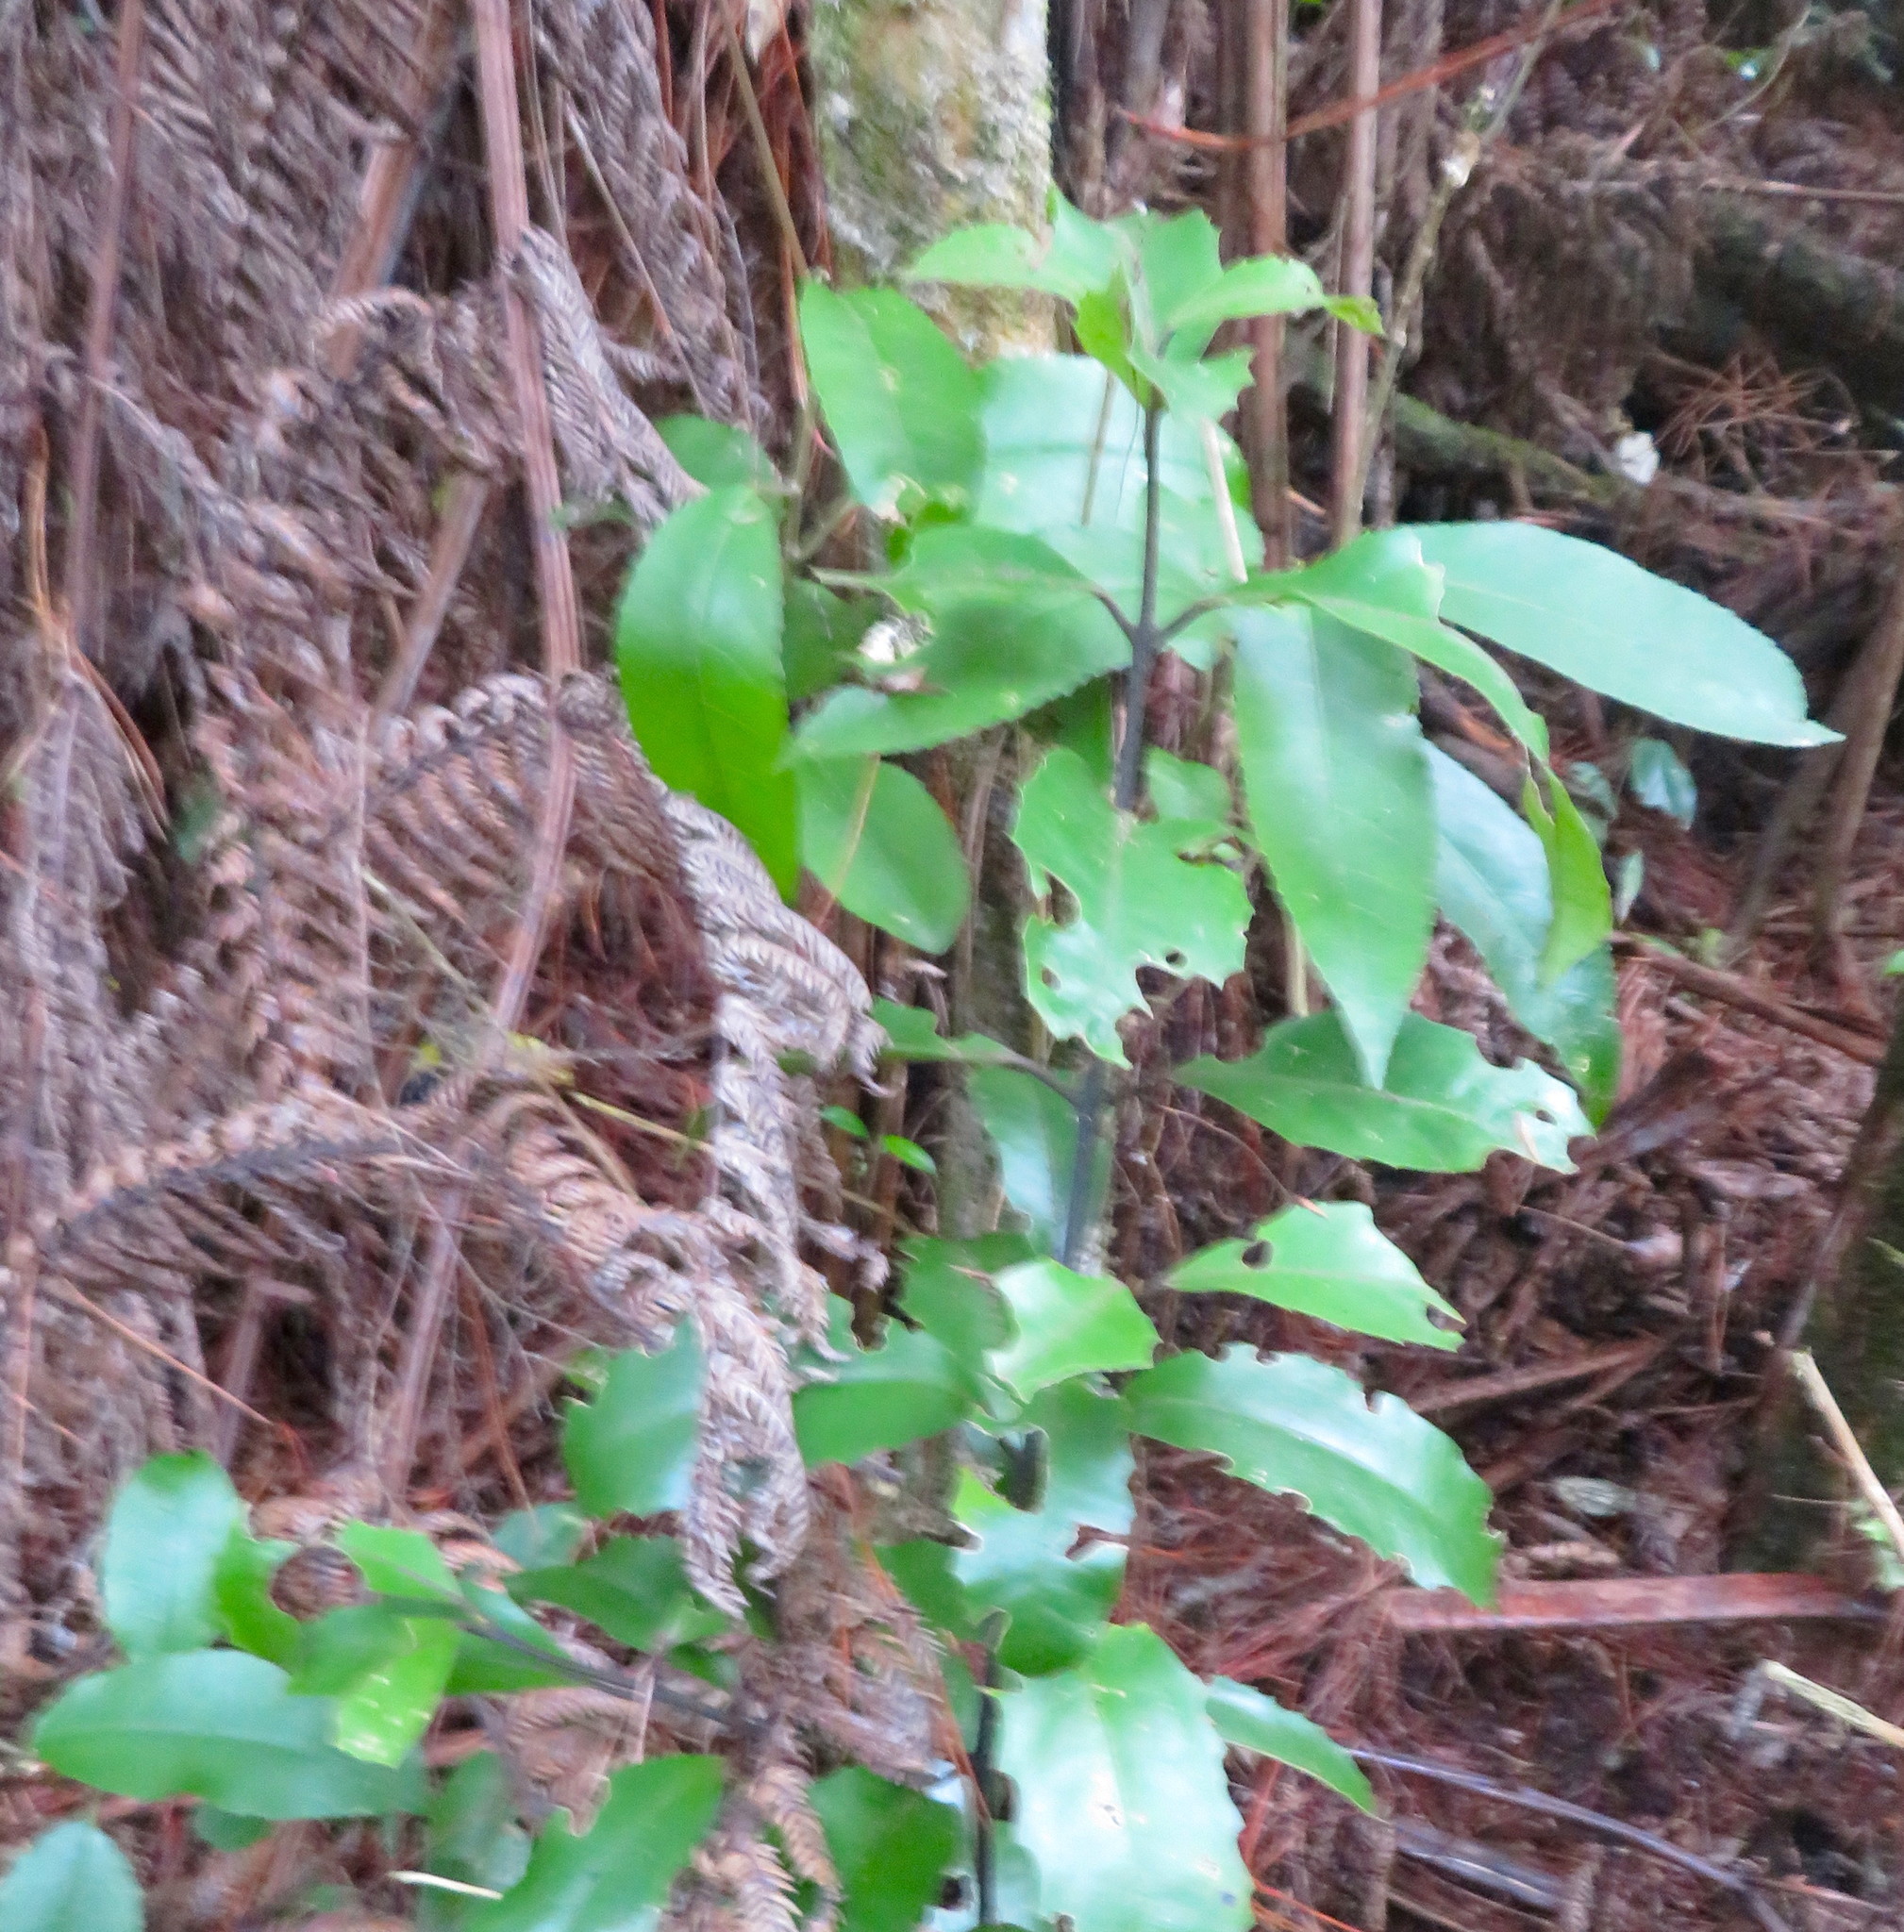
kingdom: Plantae
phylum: Tracheophyta
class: Magnoliopsida
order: Laurales
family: Monimiaceae
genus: Hedycarya
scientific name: Hedycarya arborea
